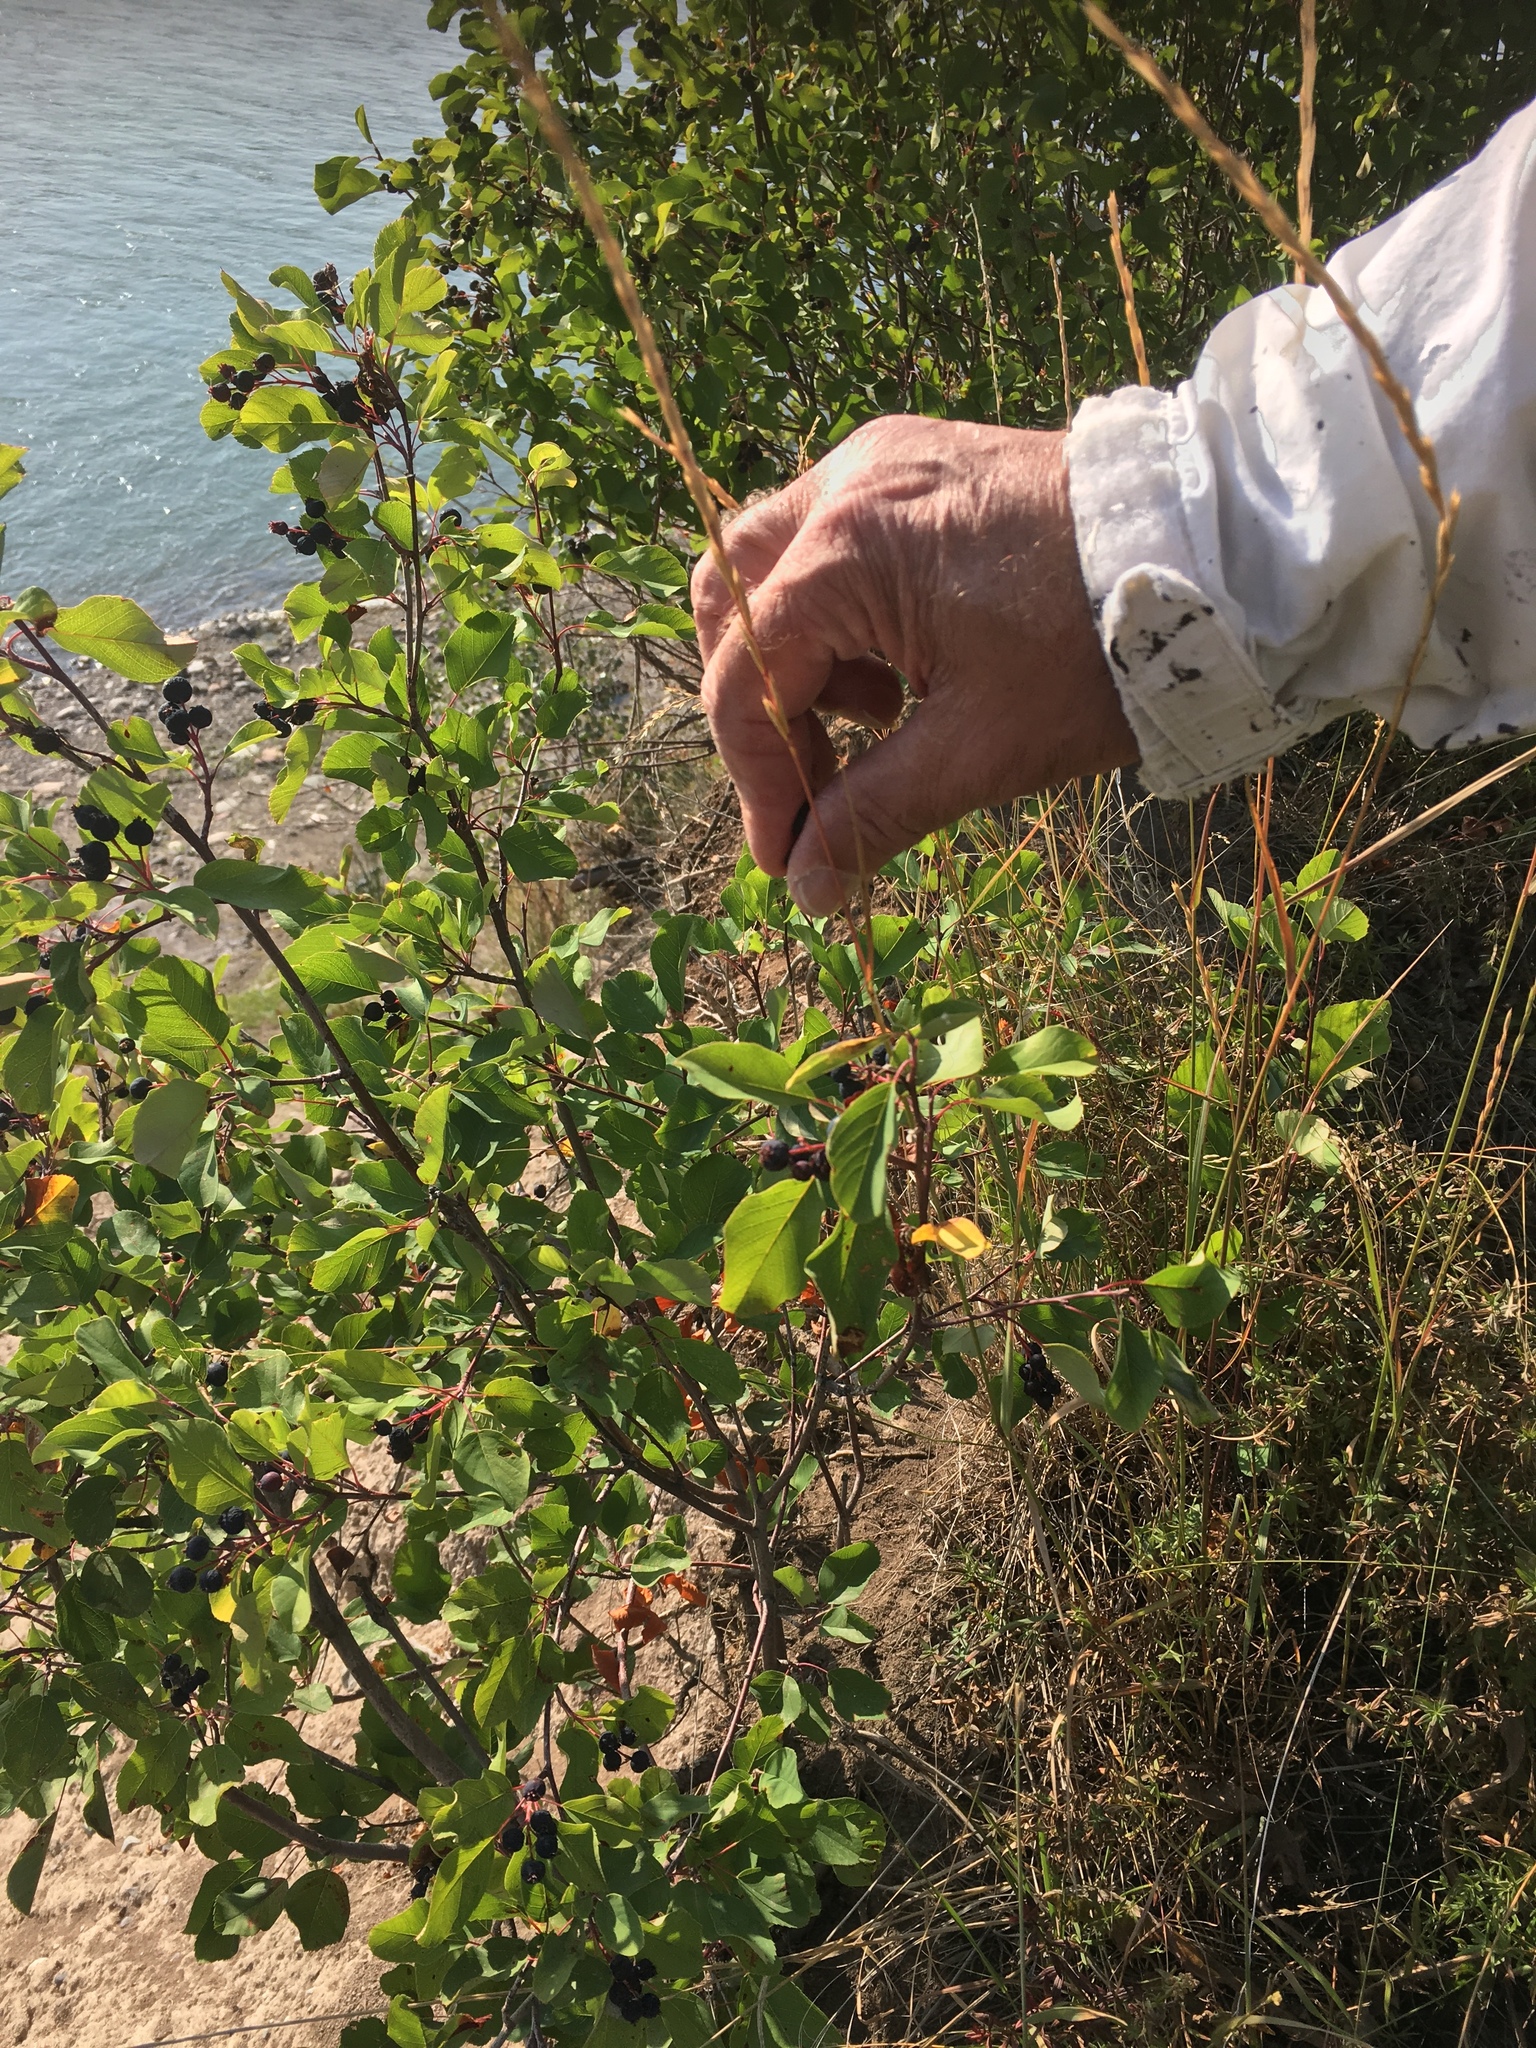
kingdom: Plantae
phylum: Tracheophyta
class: Magnoliopsida
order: Rosales
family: Rosaceae
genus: Amelanchier
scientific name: Amelanchier alnifolia
